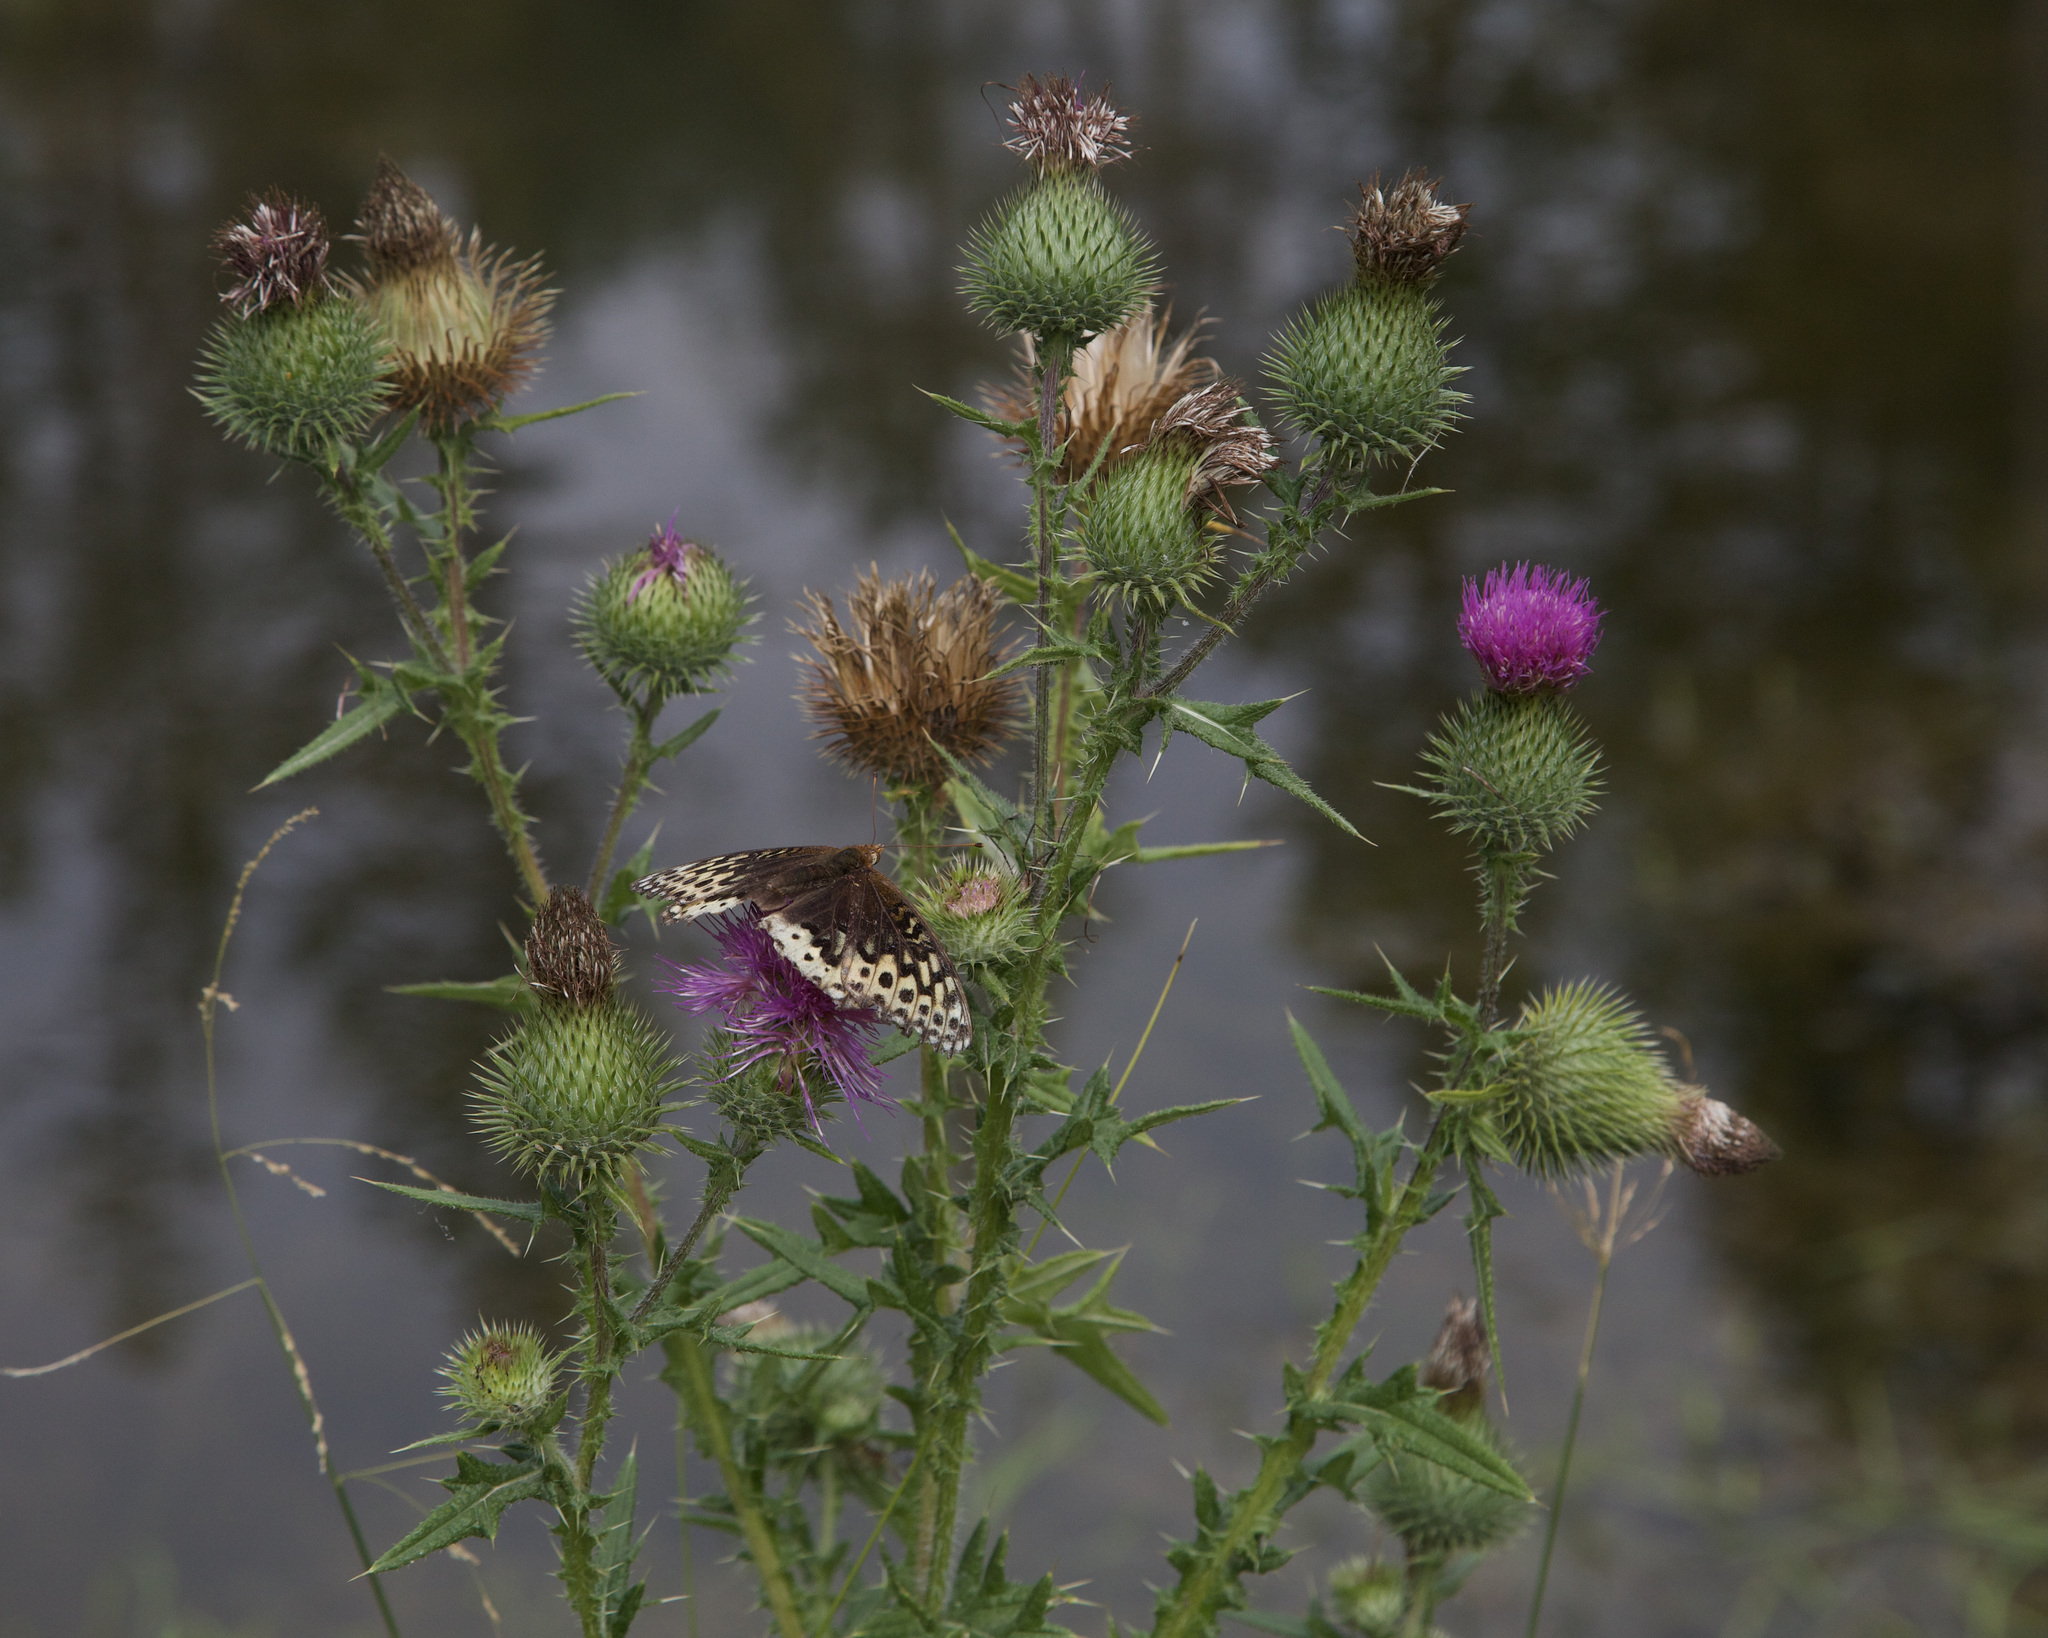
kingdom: Animalia
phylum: Arthropoda
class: Insecta
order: Lepidoptera
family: Nymphalidae
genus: Speyeria
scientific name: Speyeria cybele
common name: Great spangled fritillary
